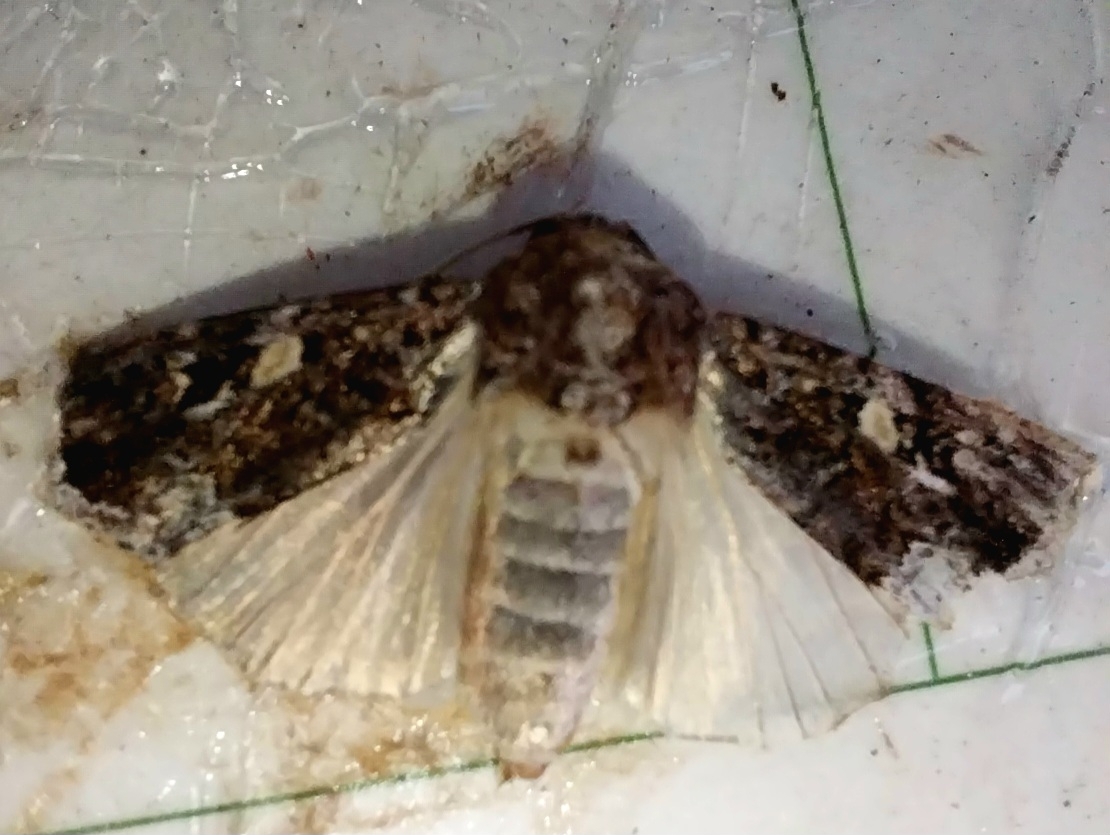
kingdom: Animalia
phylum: Arthropoda
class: Insecta
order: Lepidoptera
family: Noctuidae
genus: Spodoptera
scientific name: Spodoptera mauritia
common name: Lawn armyworm
